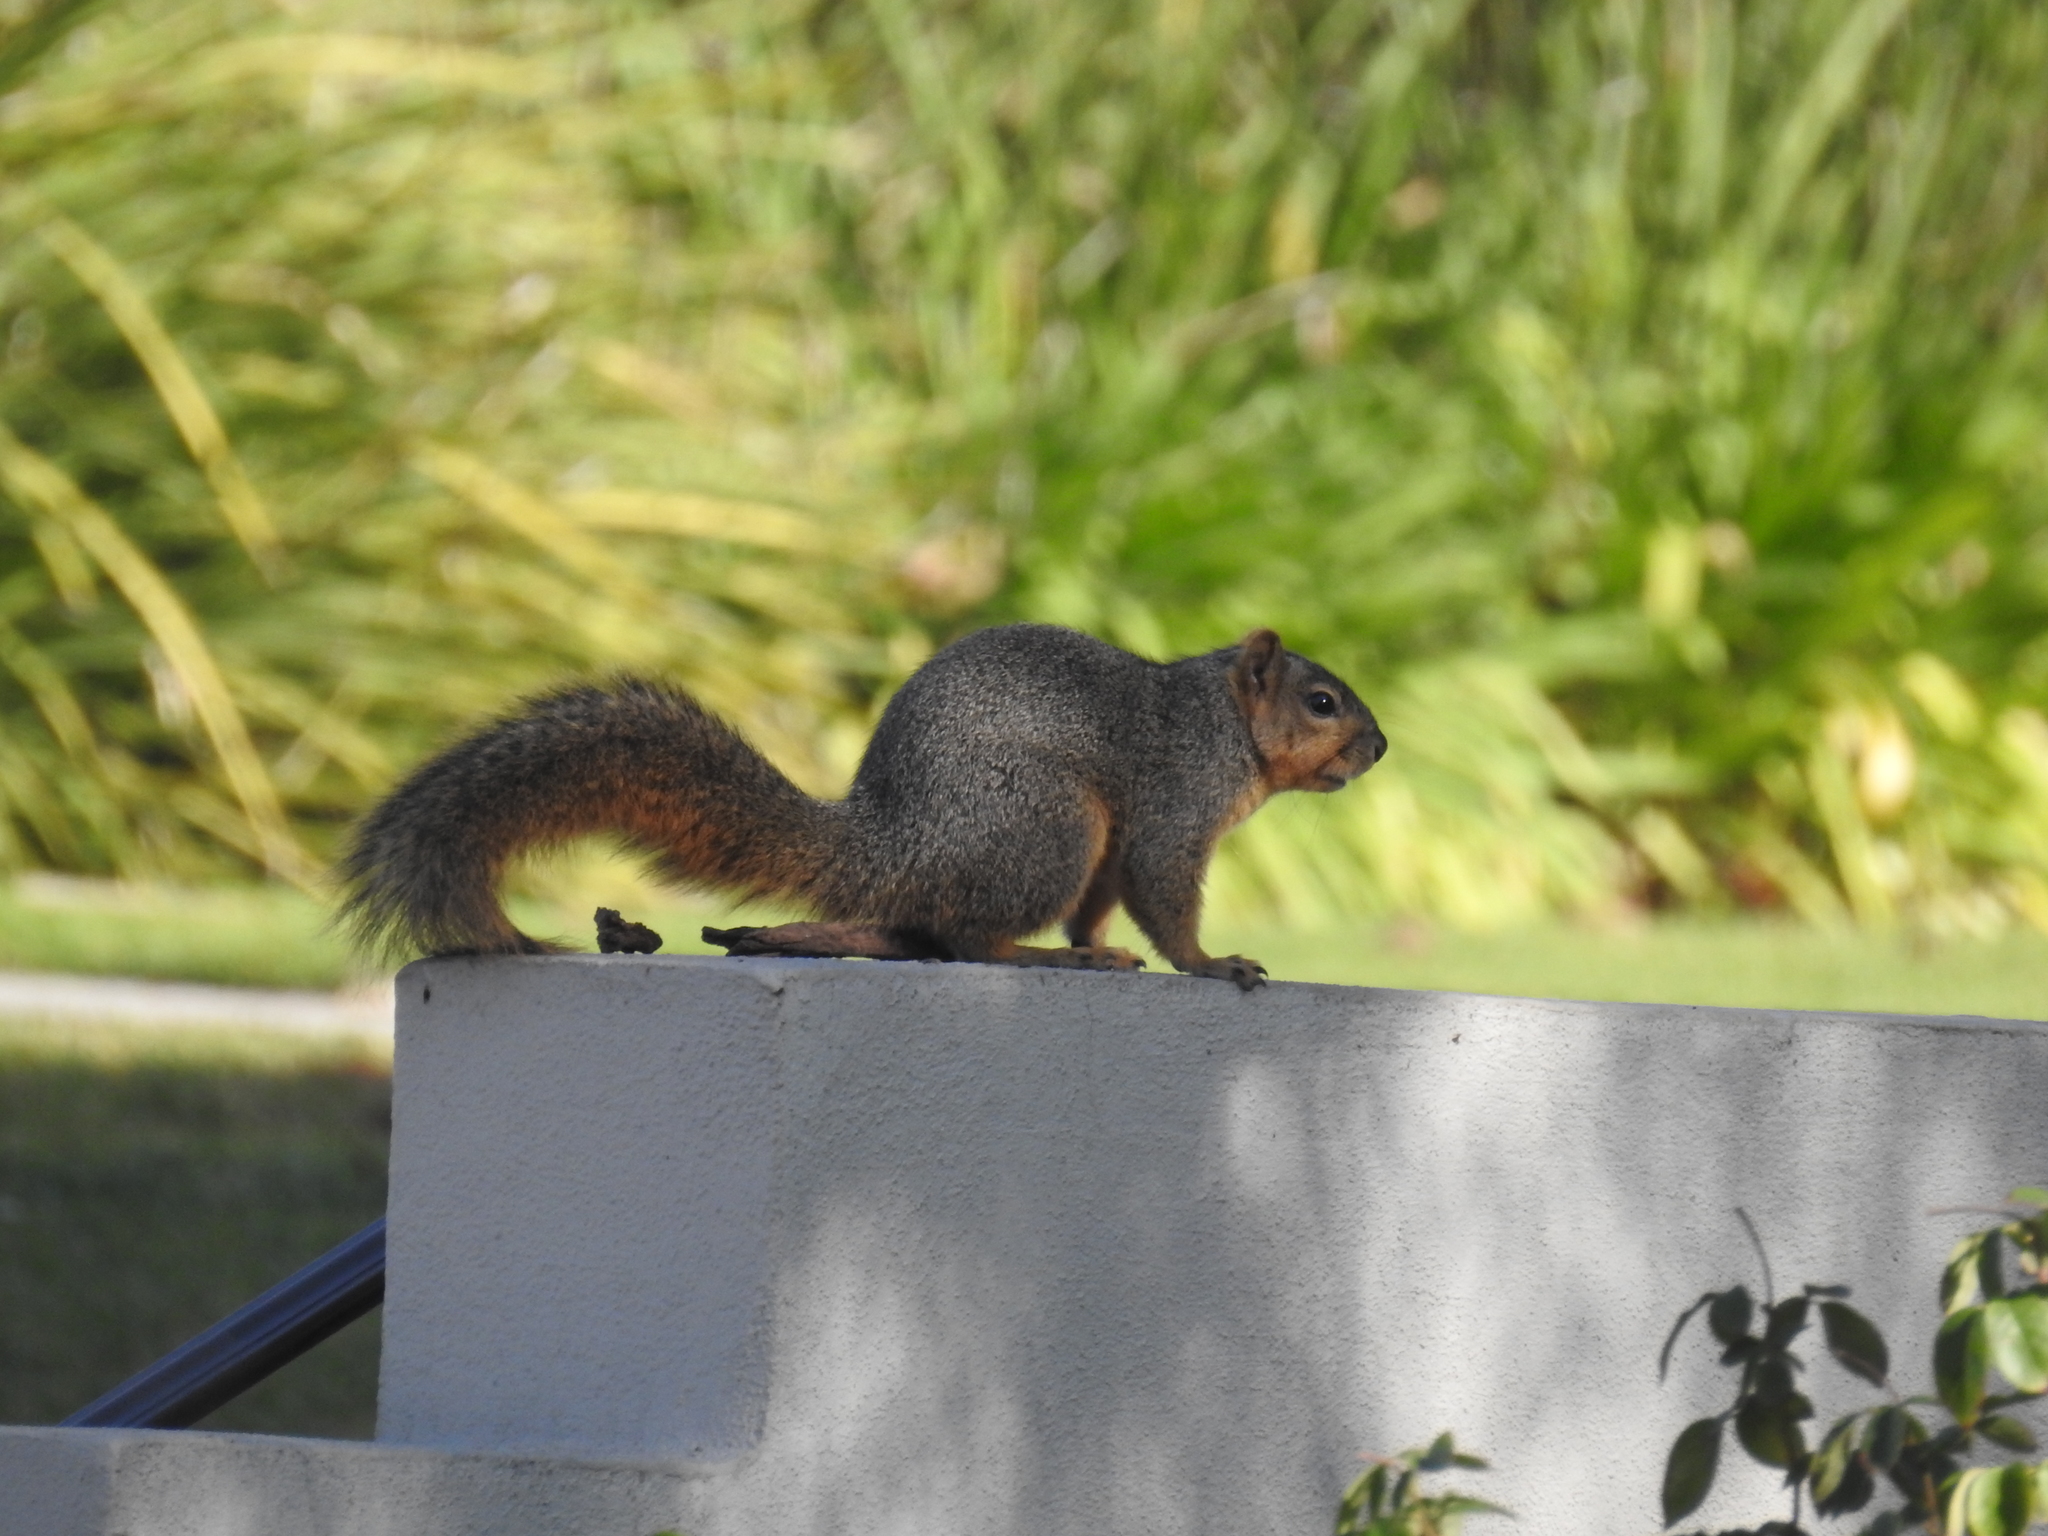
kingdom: Animalia
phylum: Chordata
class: Mammalia
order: Rodentia
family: Sciuridae
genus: Sciurus
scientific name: Sciurus niger
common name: Fox squirrel
